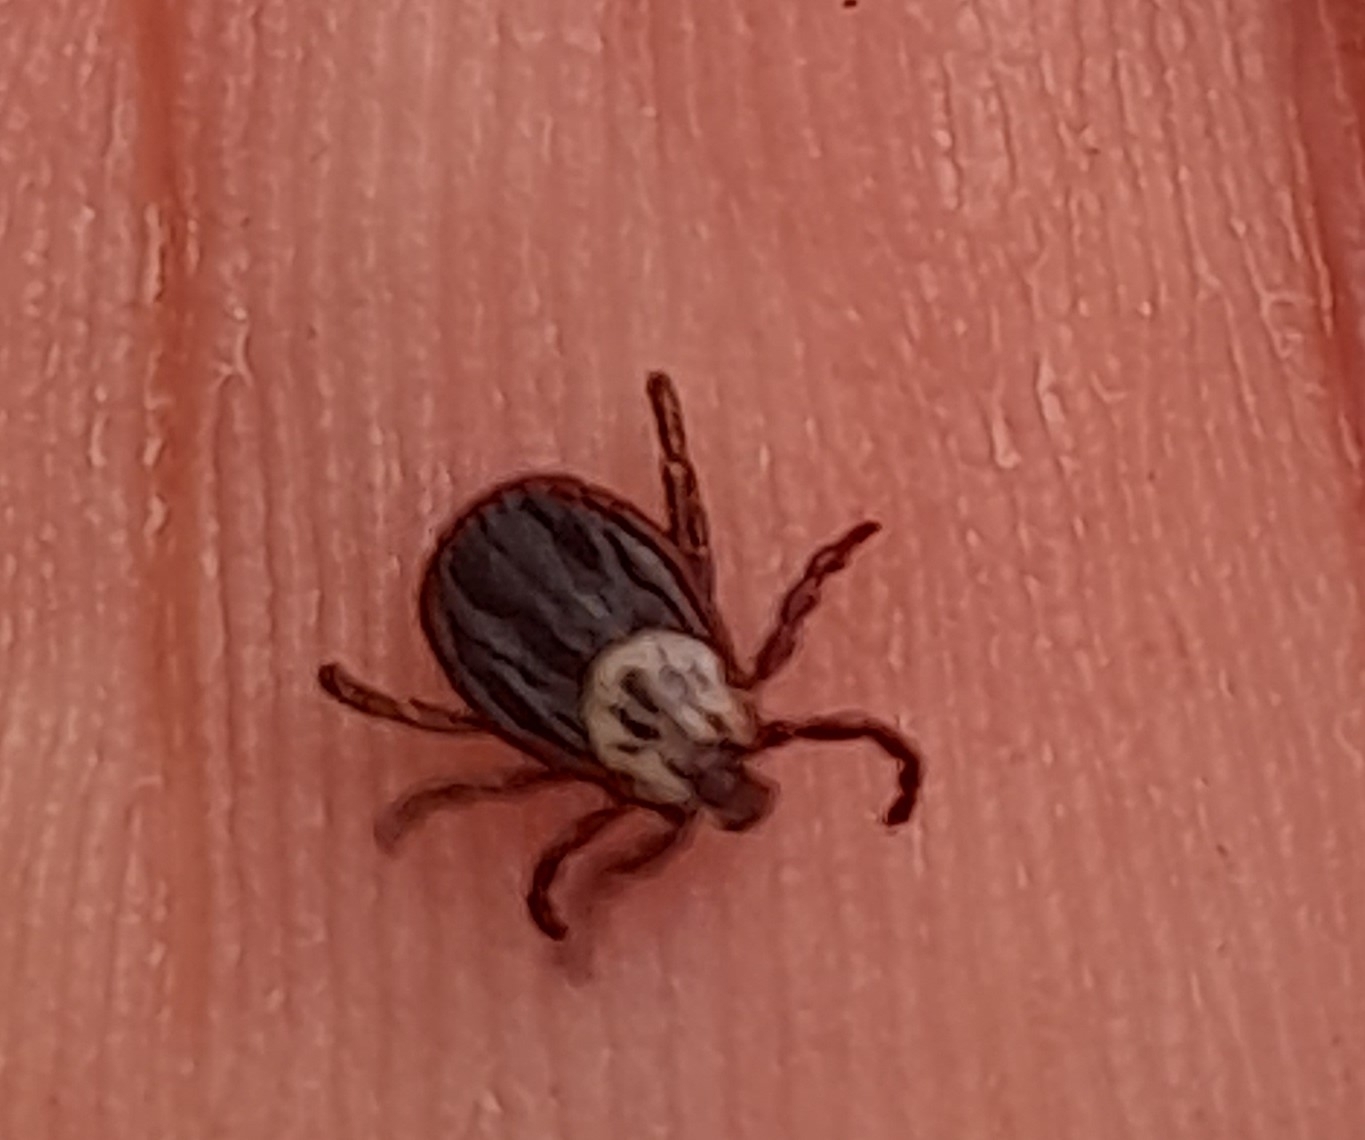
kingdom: Animalia
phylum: Arthropoda
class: Arachnida
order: Ixodida
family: Ixodidae
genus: Dermacentor
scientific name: Dermacentor reticulatus
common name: Ornate cow tick
